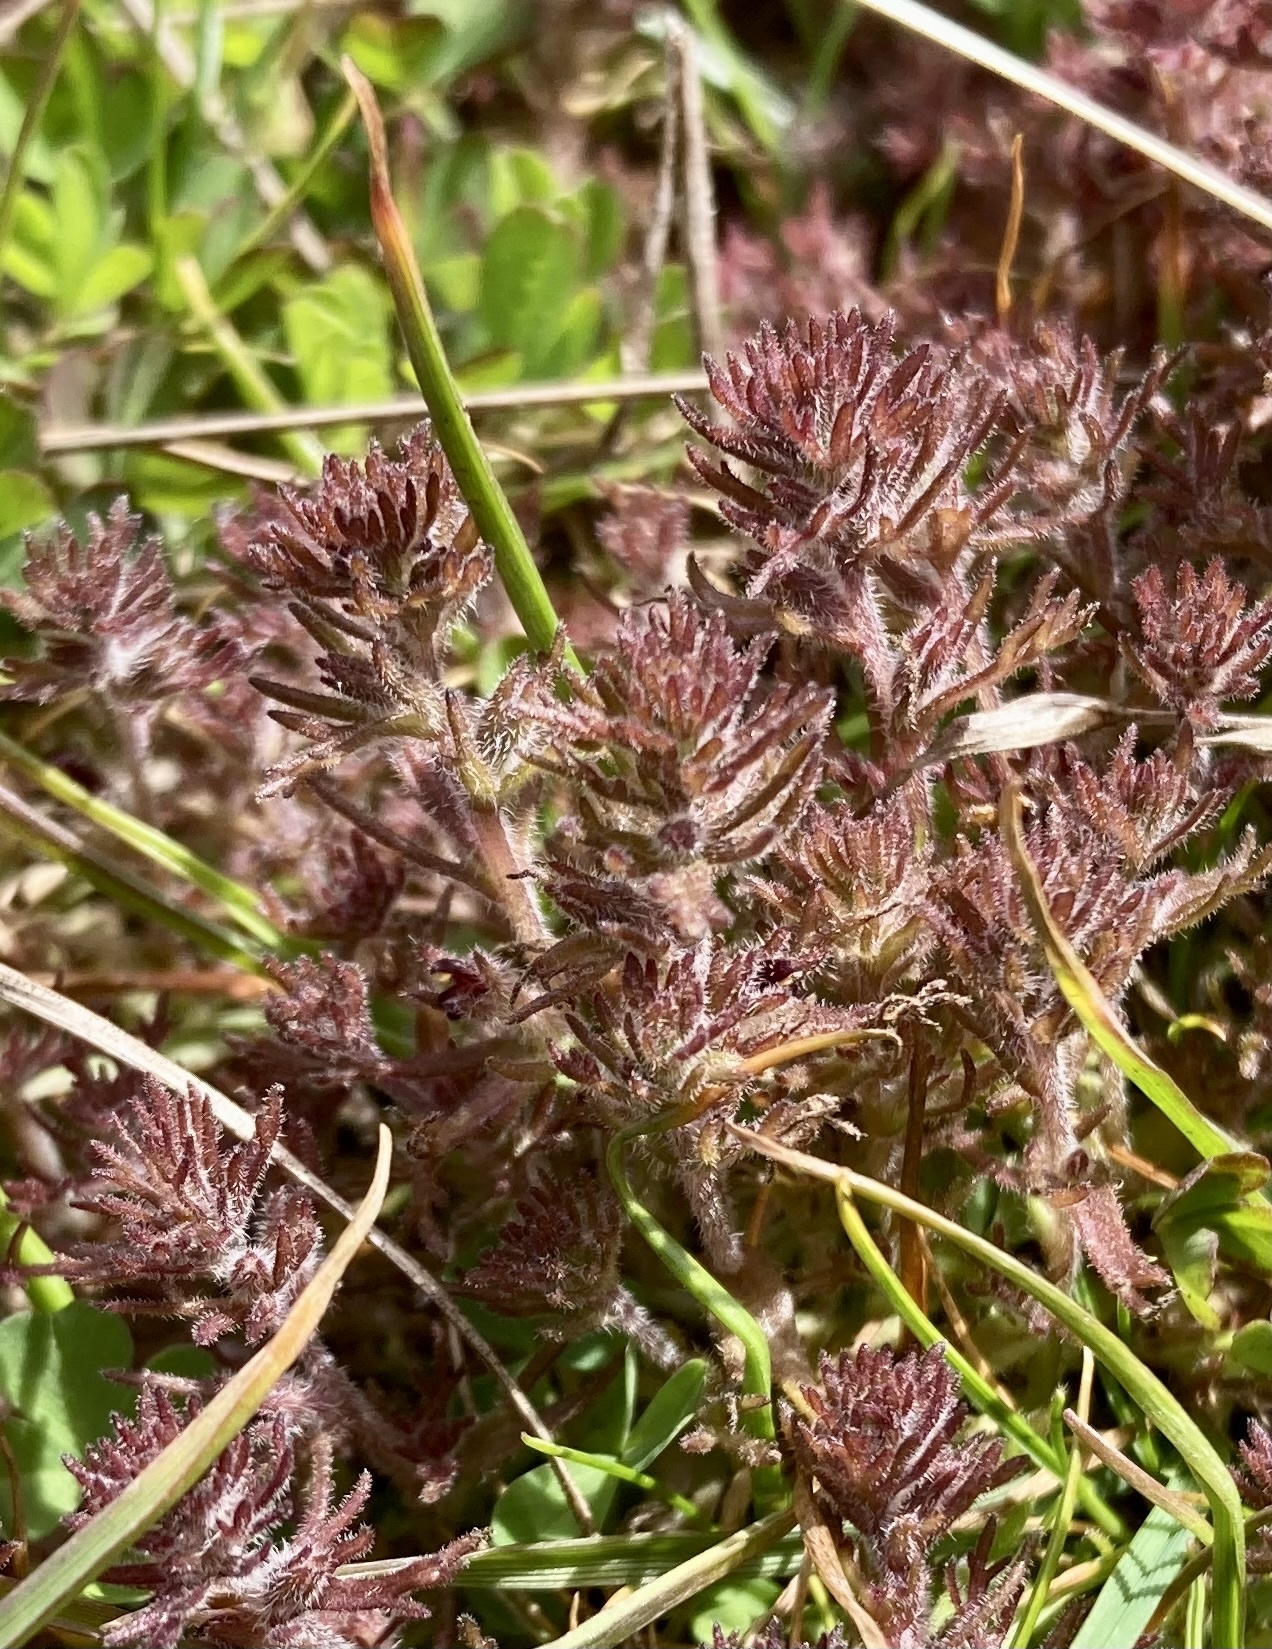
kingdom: Plantae
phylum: Tracheophyta
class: Magnoliopsida
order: Lamiales
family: Orobanchaceae
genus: Triphysaria
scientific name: Triphysaria pusilla
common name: Dwarf false owl-clover
